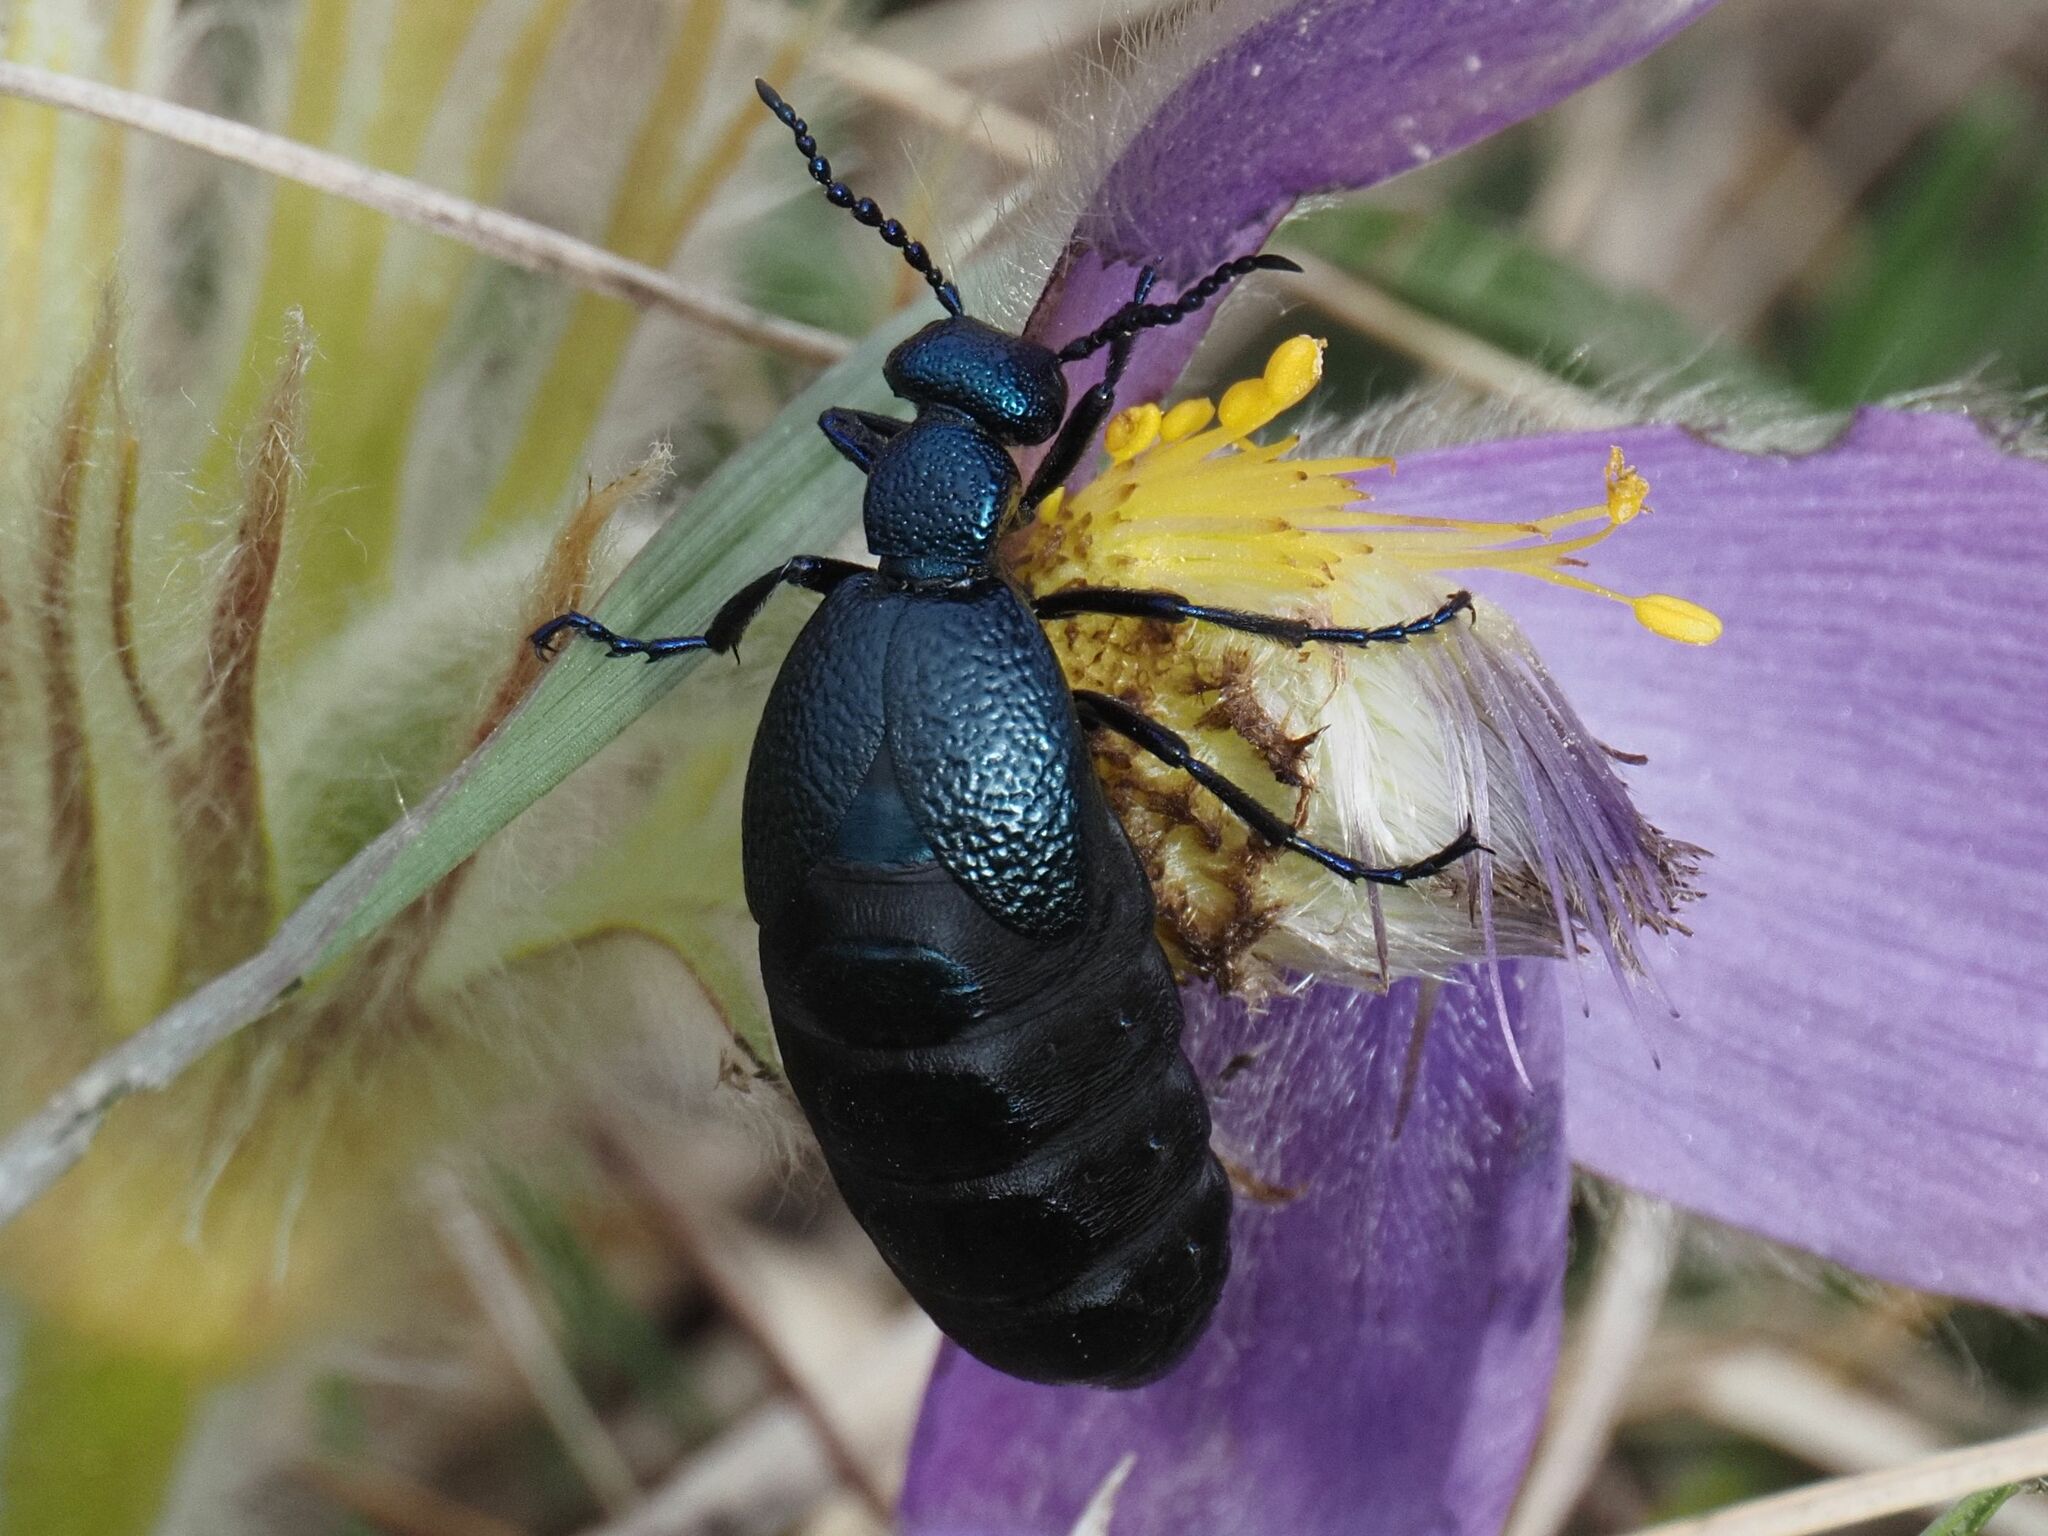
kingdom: Animalia
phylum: Arthropoda
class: Insecta
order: Coleoptera
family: Meloidae
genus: Meloe
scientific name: Meloe proscarabaeus
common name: Black oil-beetle
